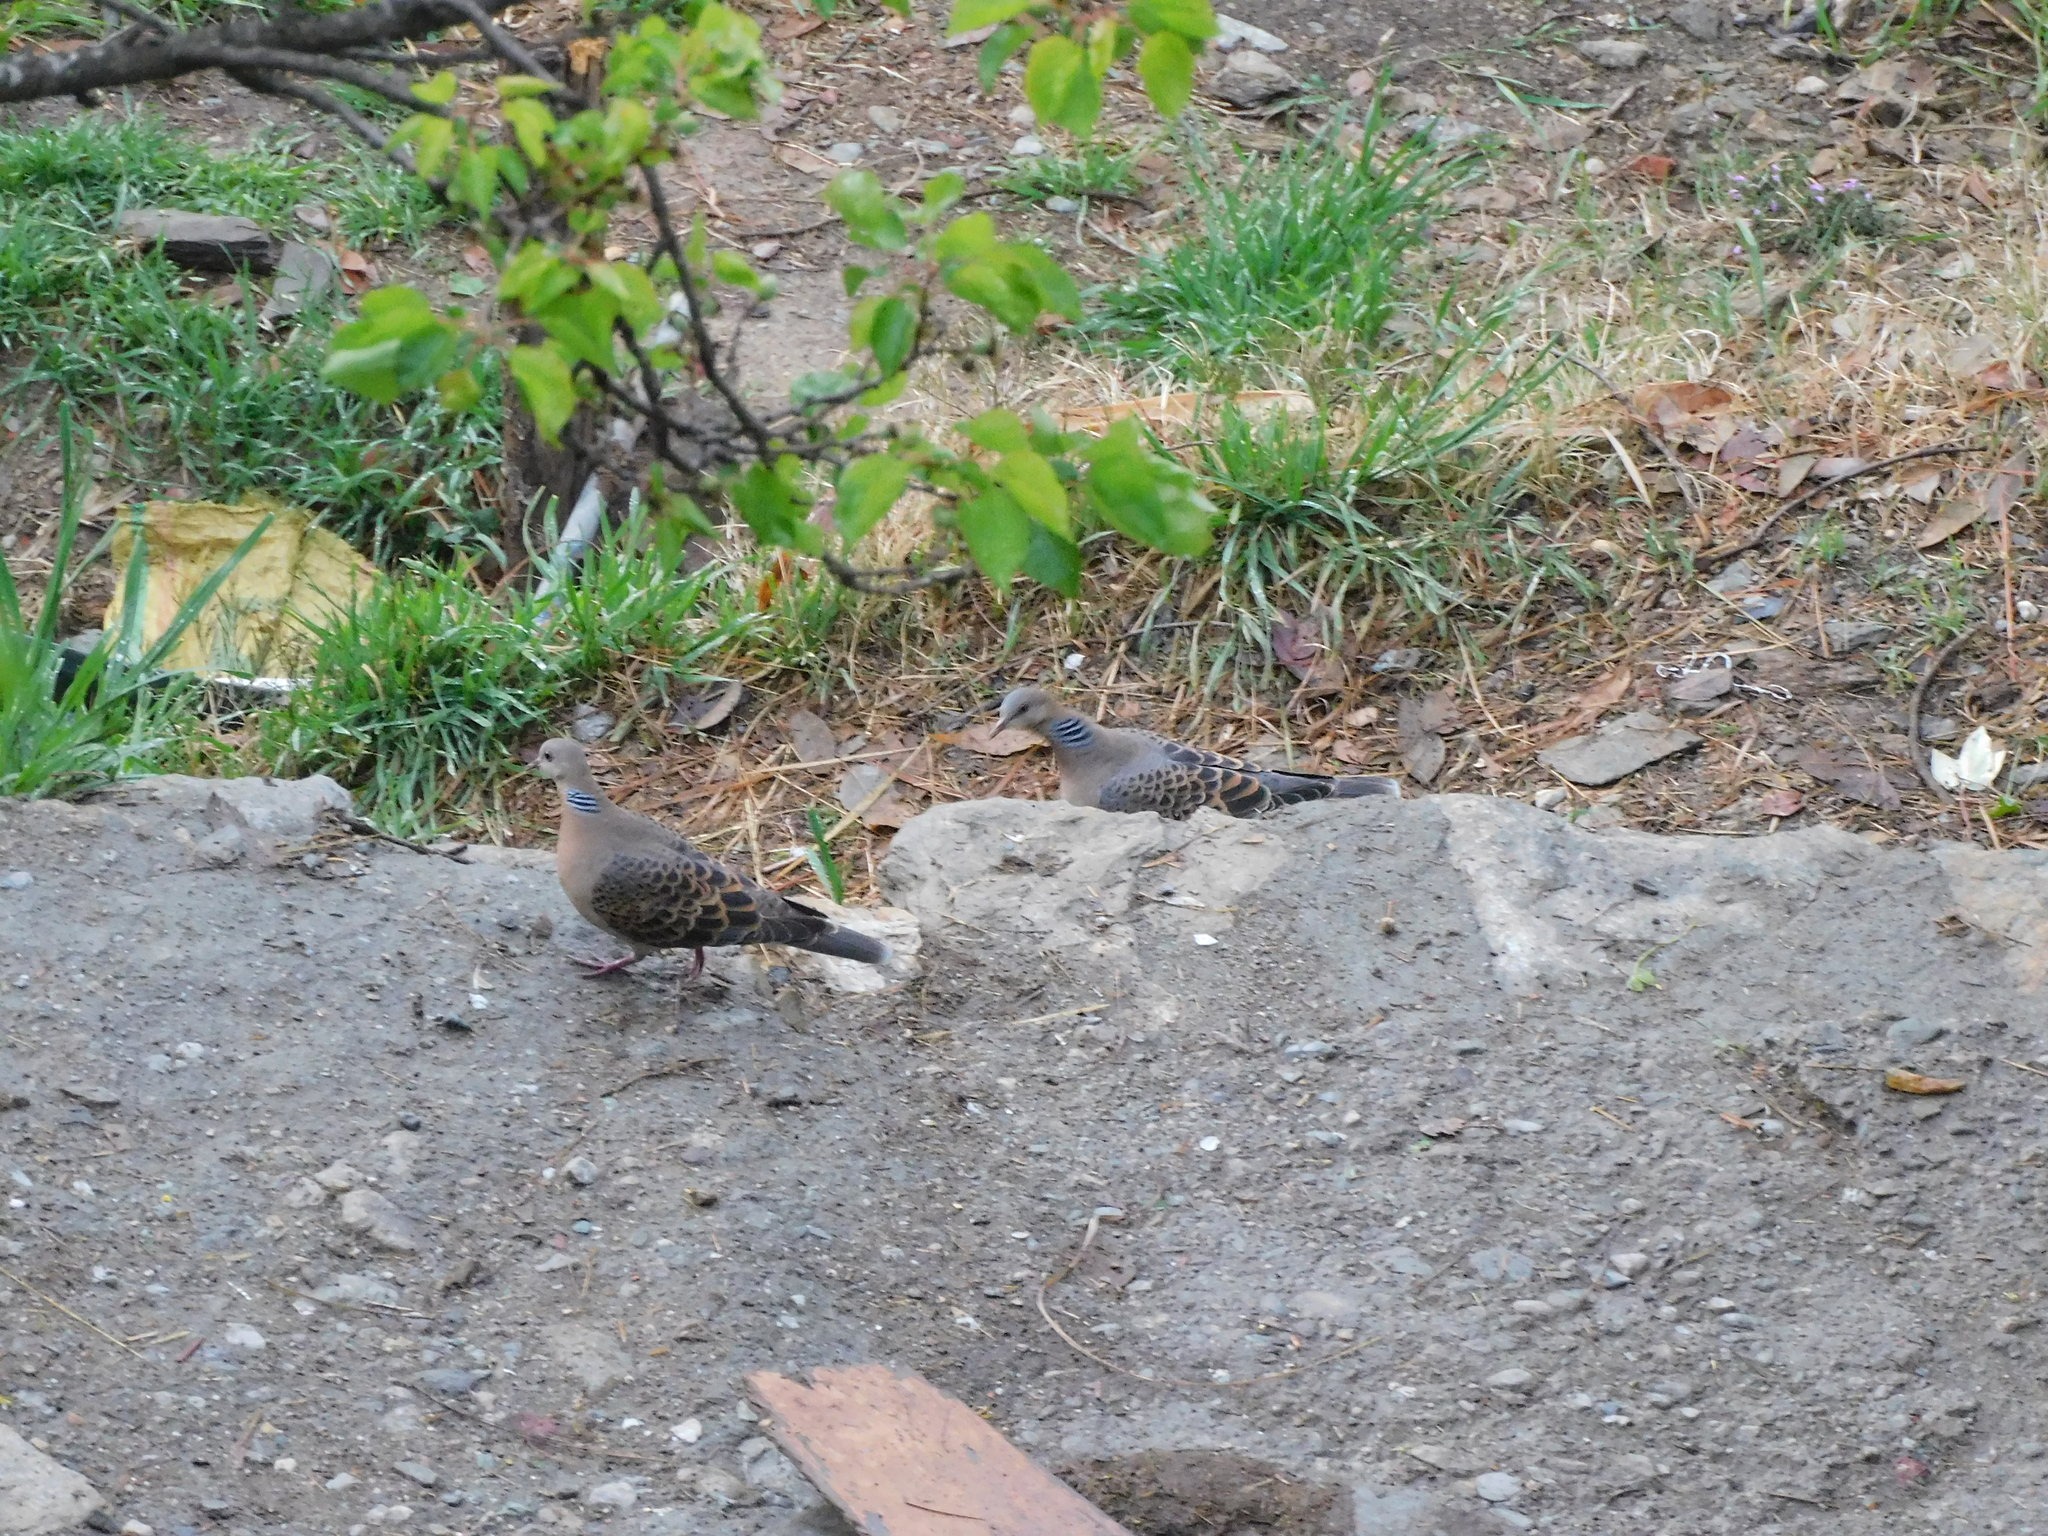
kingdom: Animalia
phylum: Chordata
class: Aves
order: Columbiformes
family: Columbidae
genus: Streptopelia
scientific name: Streptopelia orientalis
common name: Oriental turtle dove
